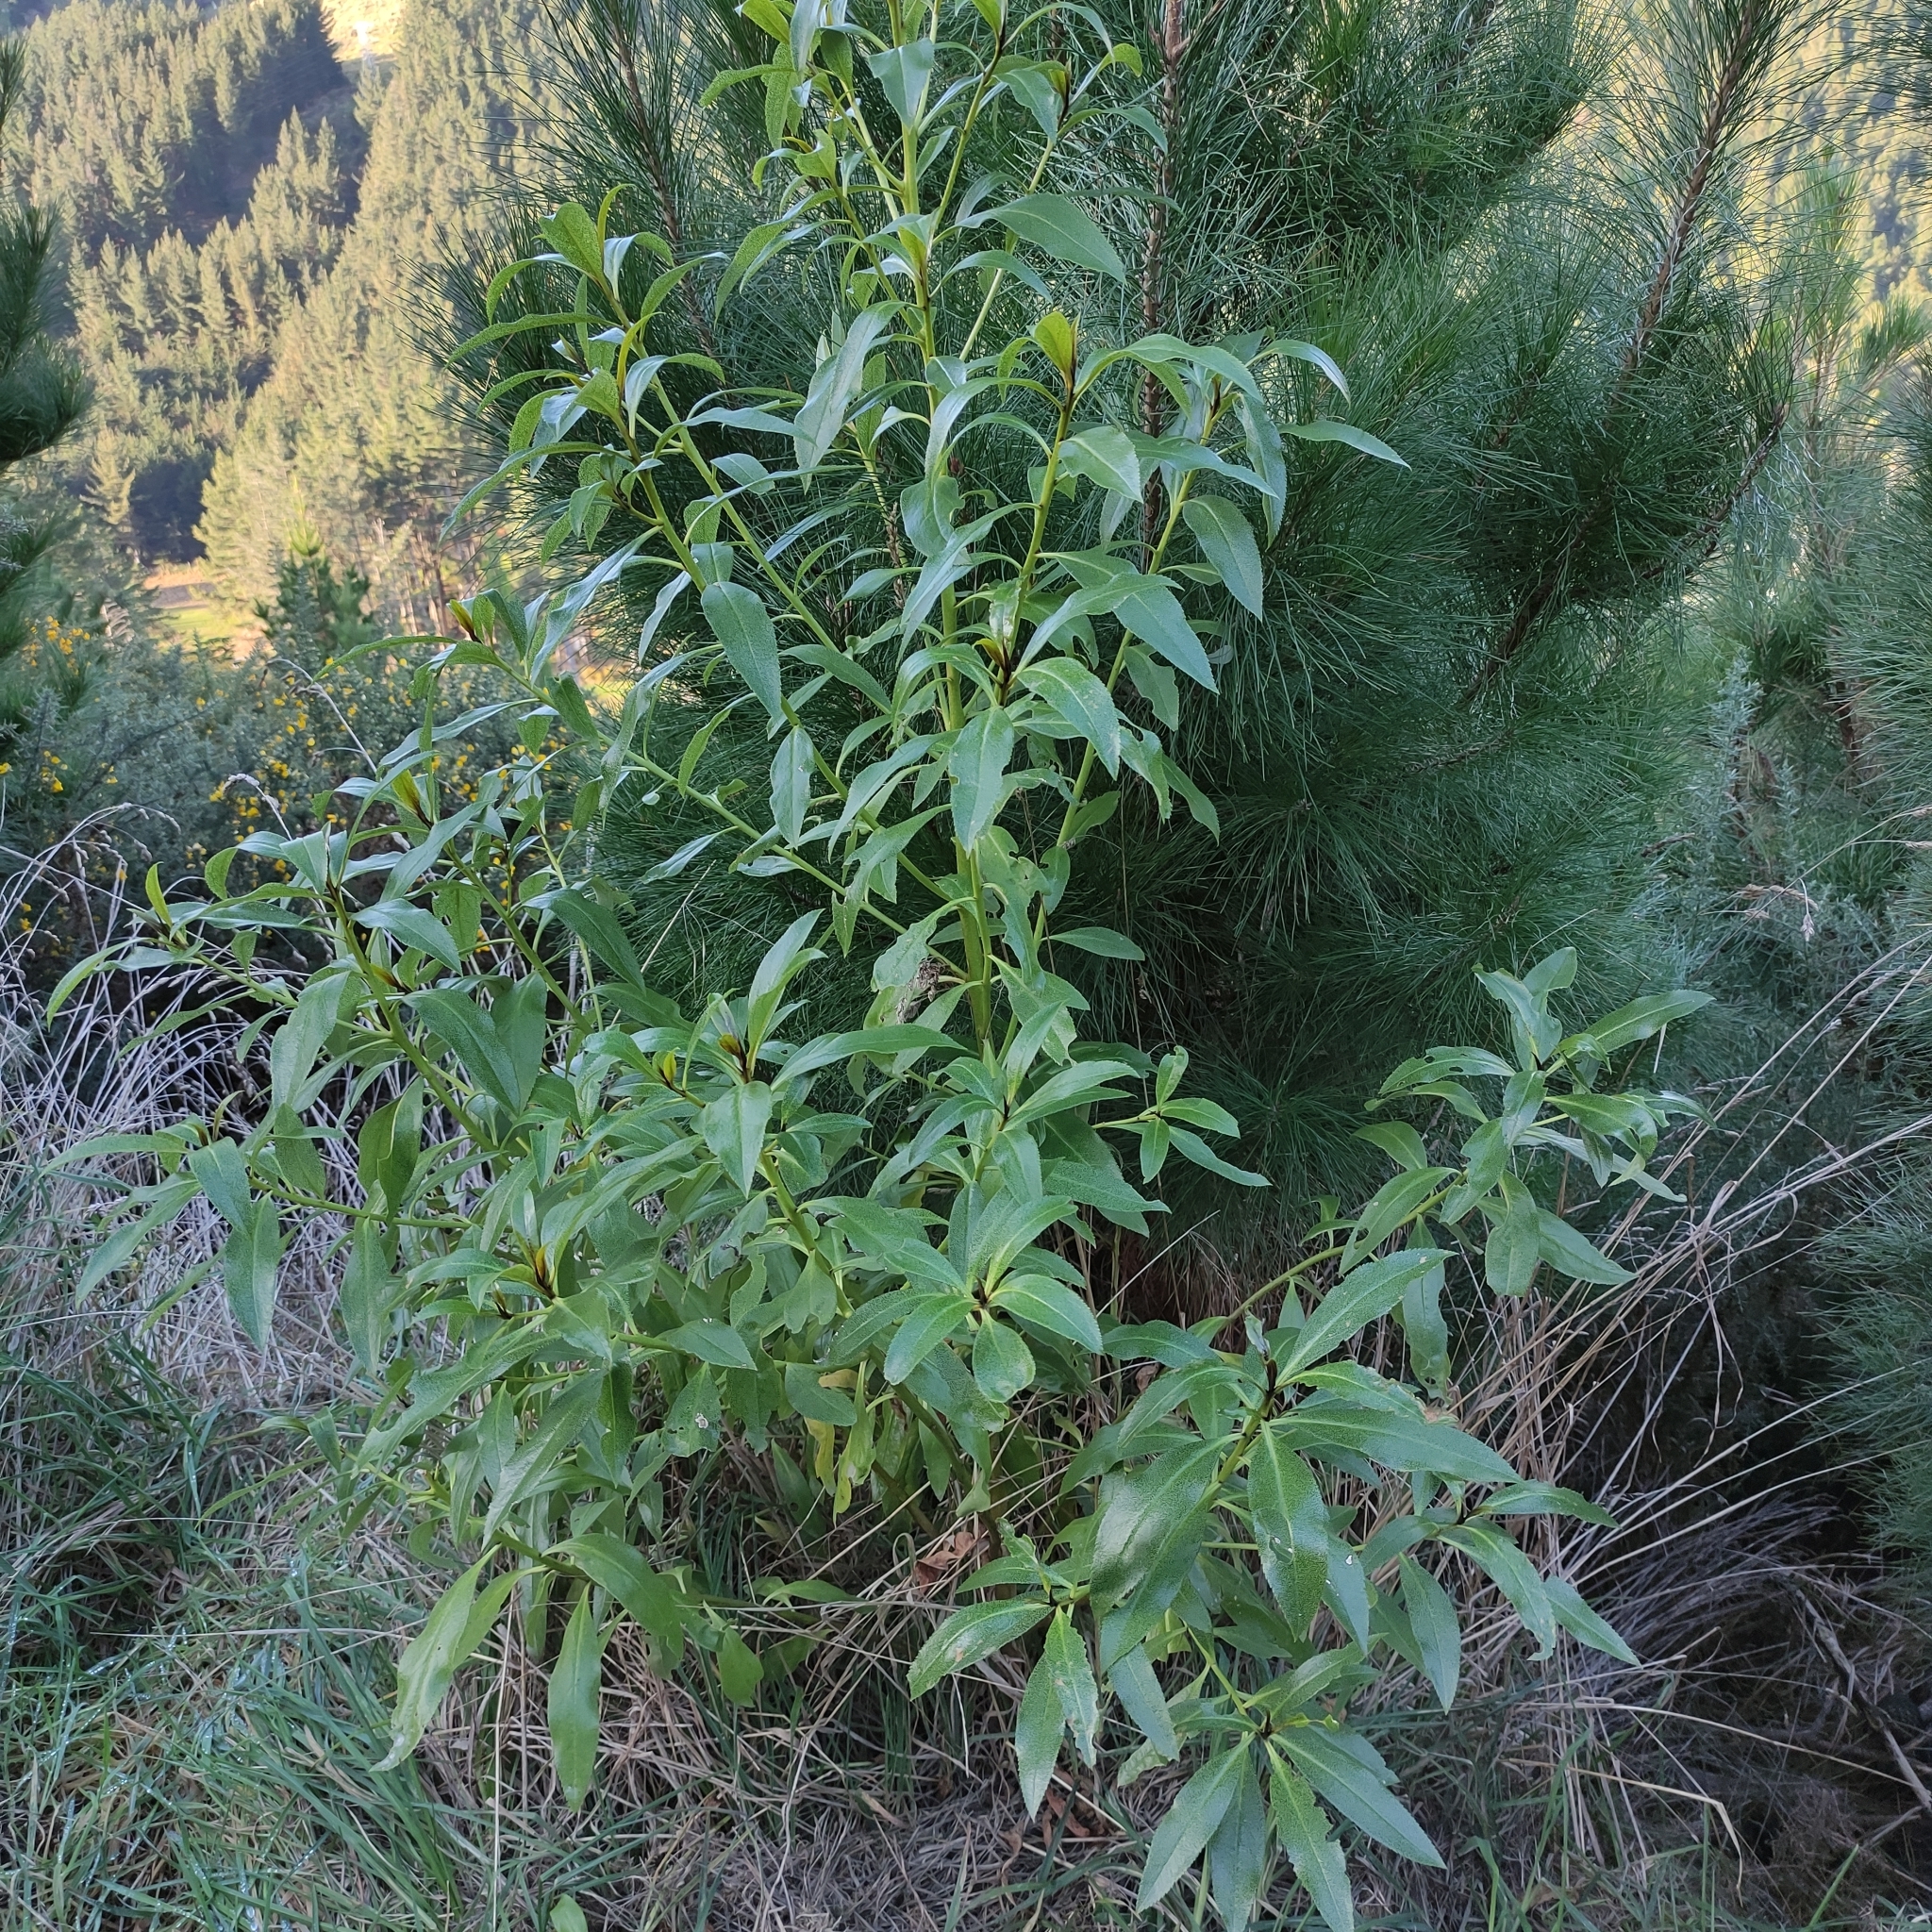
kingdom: Plantae
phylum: Tracheophyta
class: Magnoliopsida
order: Lamiales
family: Scrophulariaceae
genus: Myoporum
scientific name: Myoporum laetum
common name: Ngaio tree
